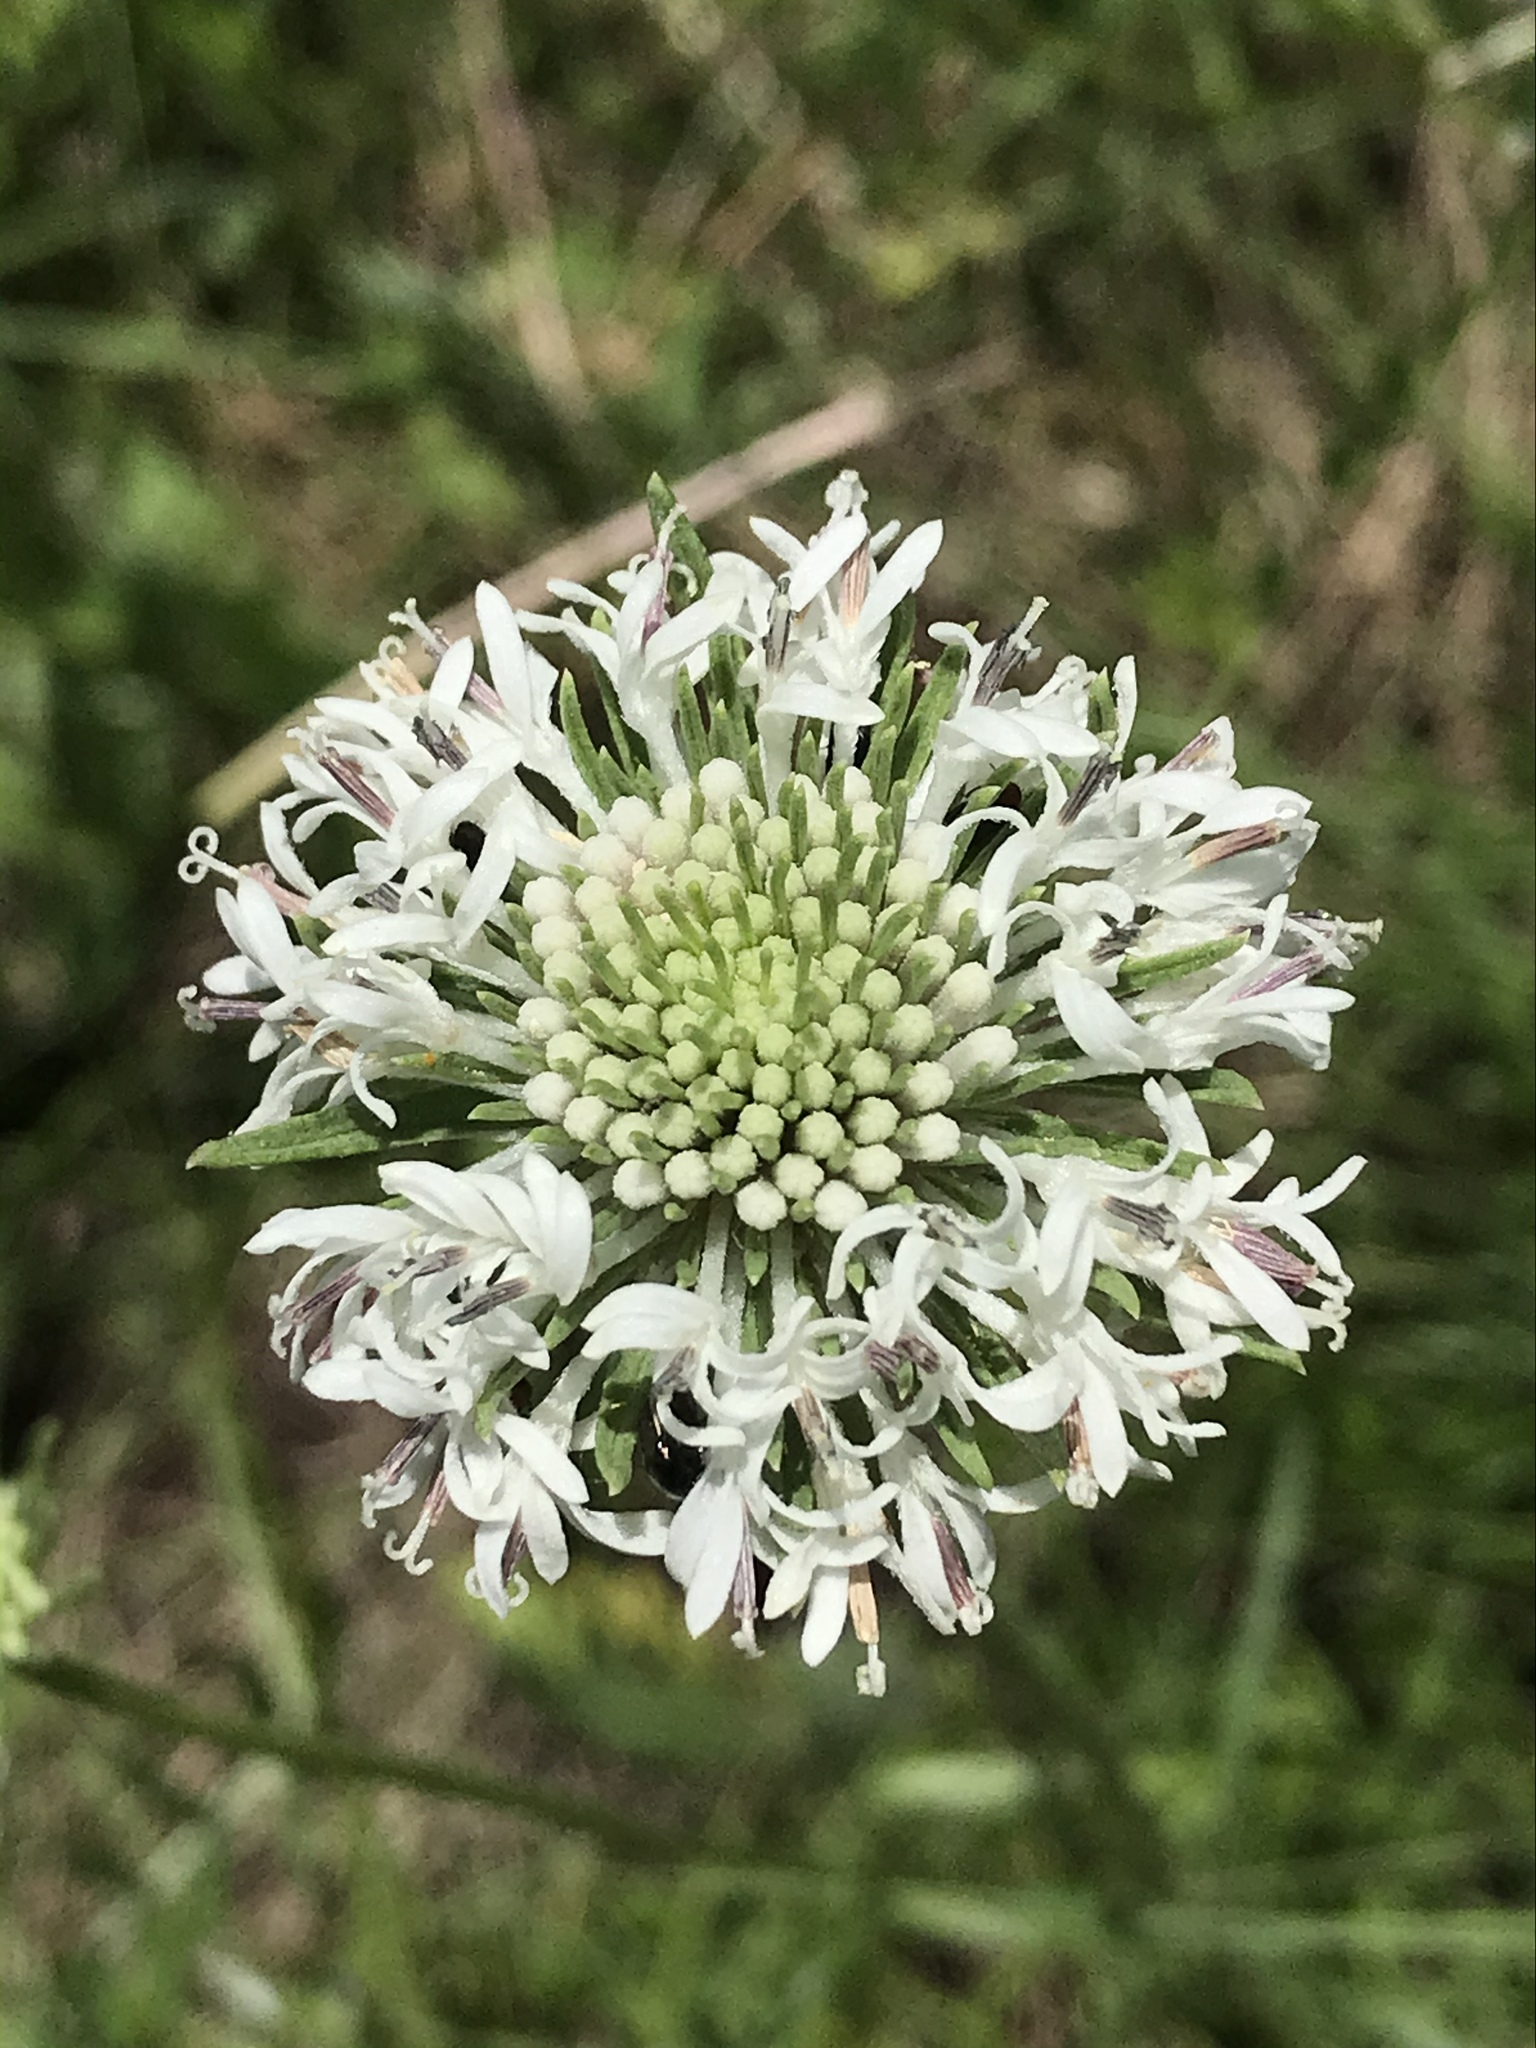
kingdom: Plantae
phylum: Tracheophyta
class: Magnoliopsida
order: Asterales
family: Asteraceae
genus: Marshallia
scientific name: Marshallia caespitosa
